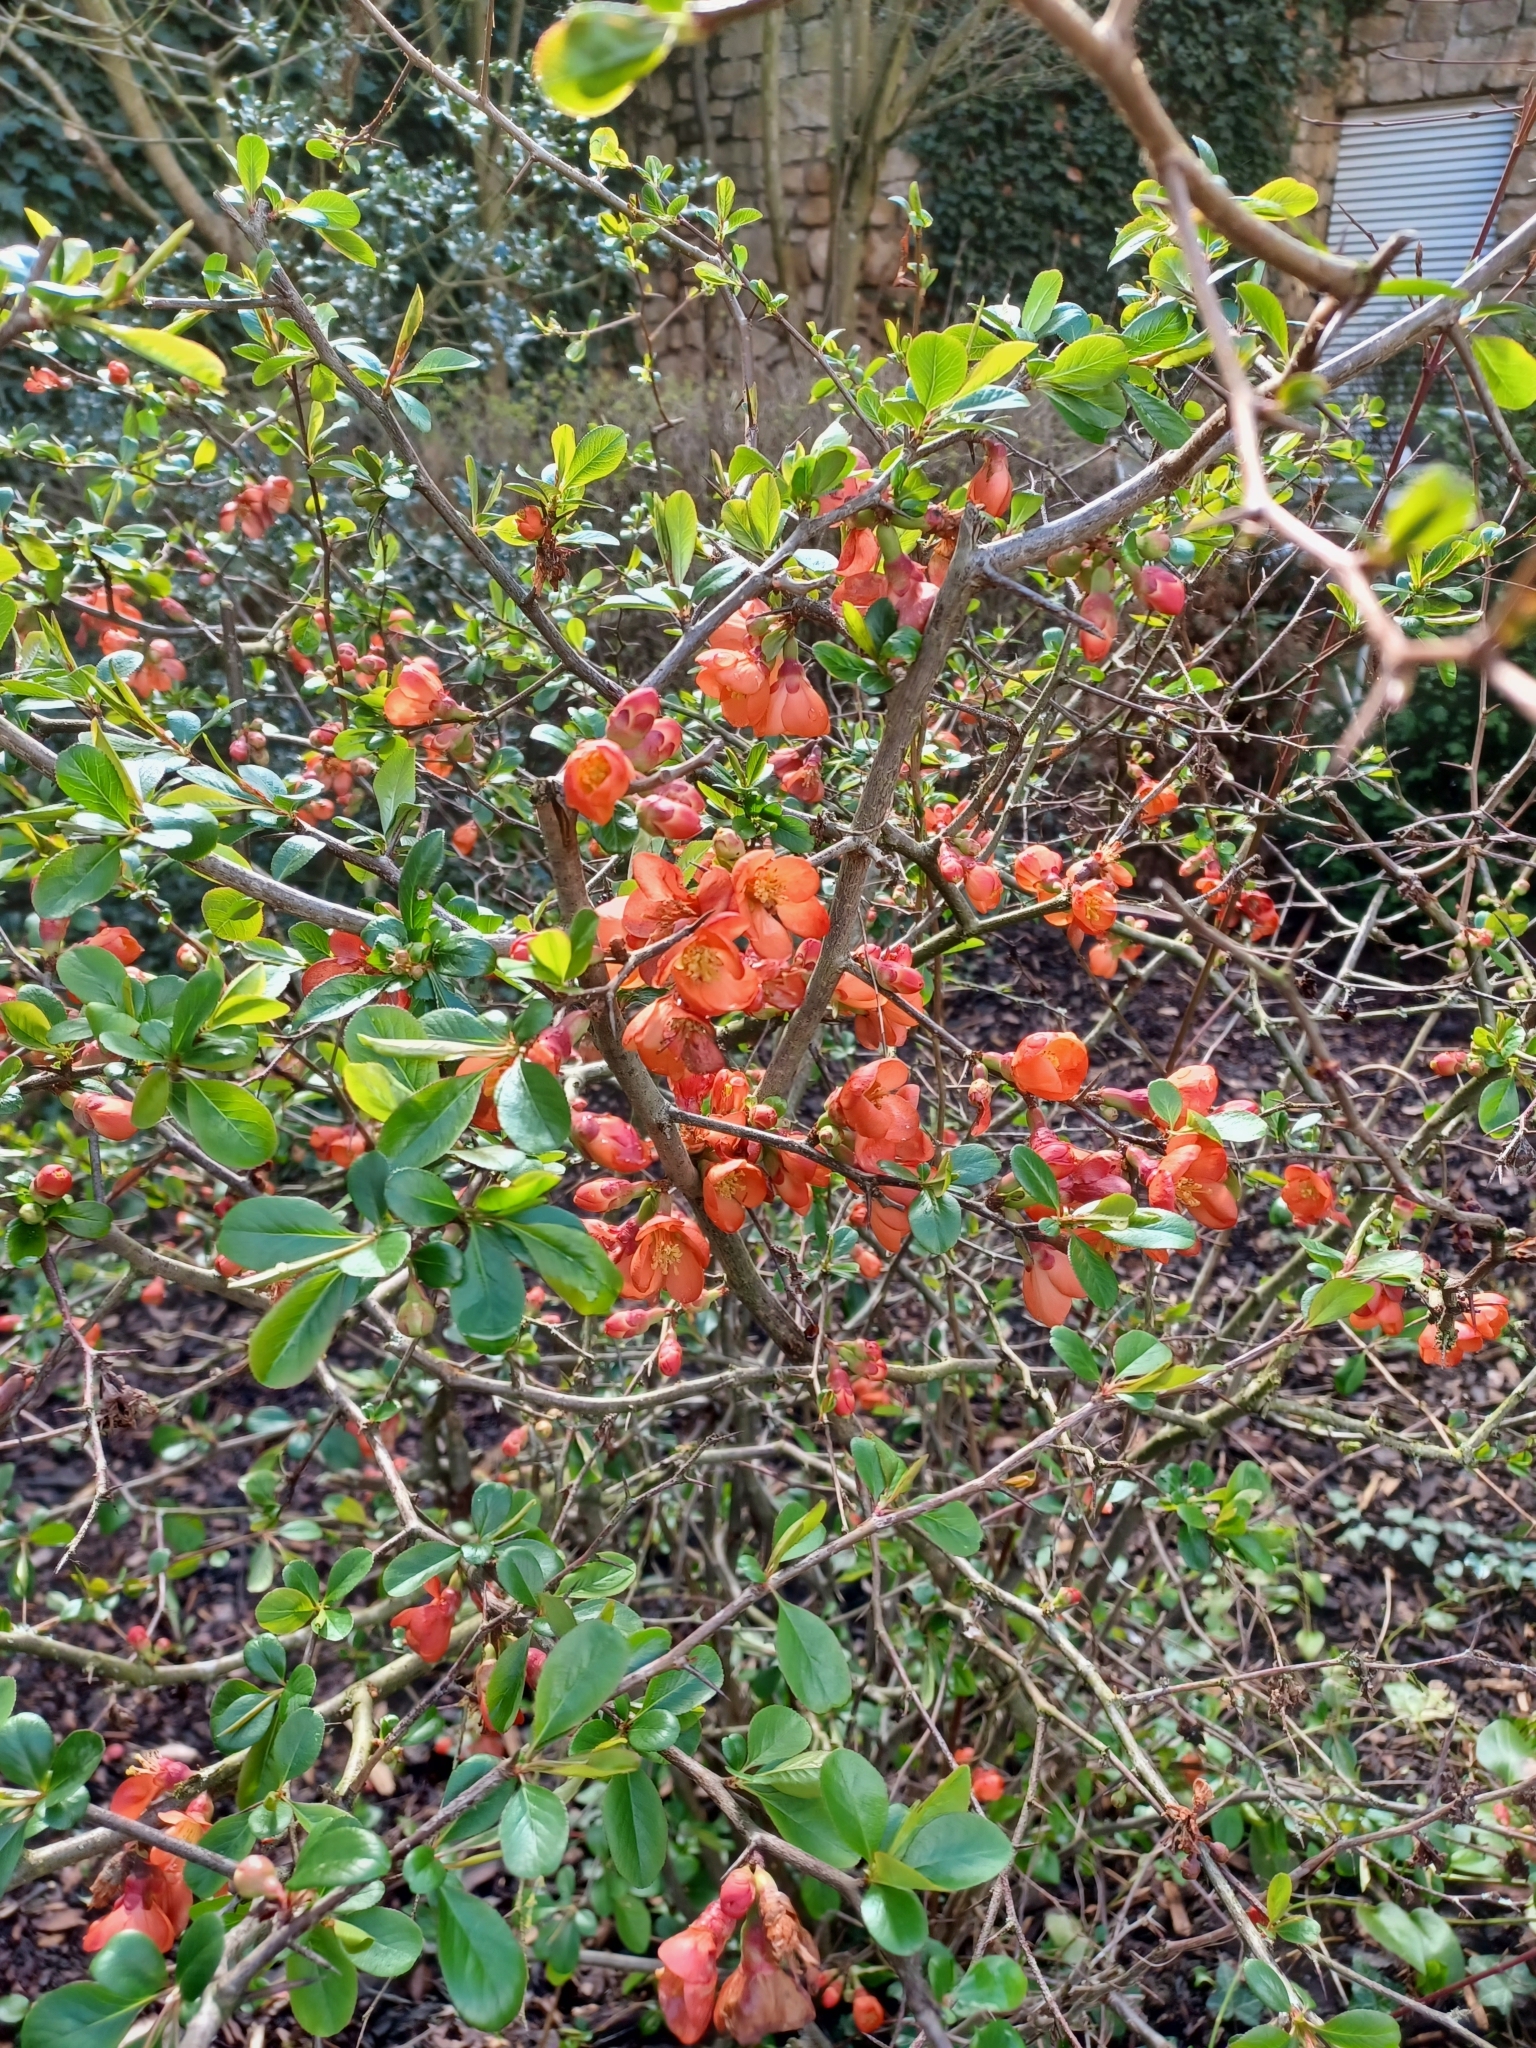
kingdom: Plantae
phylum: Tracheophyta
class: Magnoliopsida
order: Rosales
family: Rosaceae
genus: Chaenomeles
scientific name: Chaenomeles japonica
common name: Japanese quince
